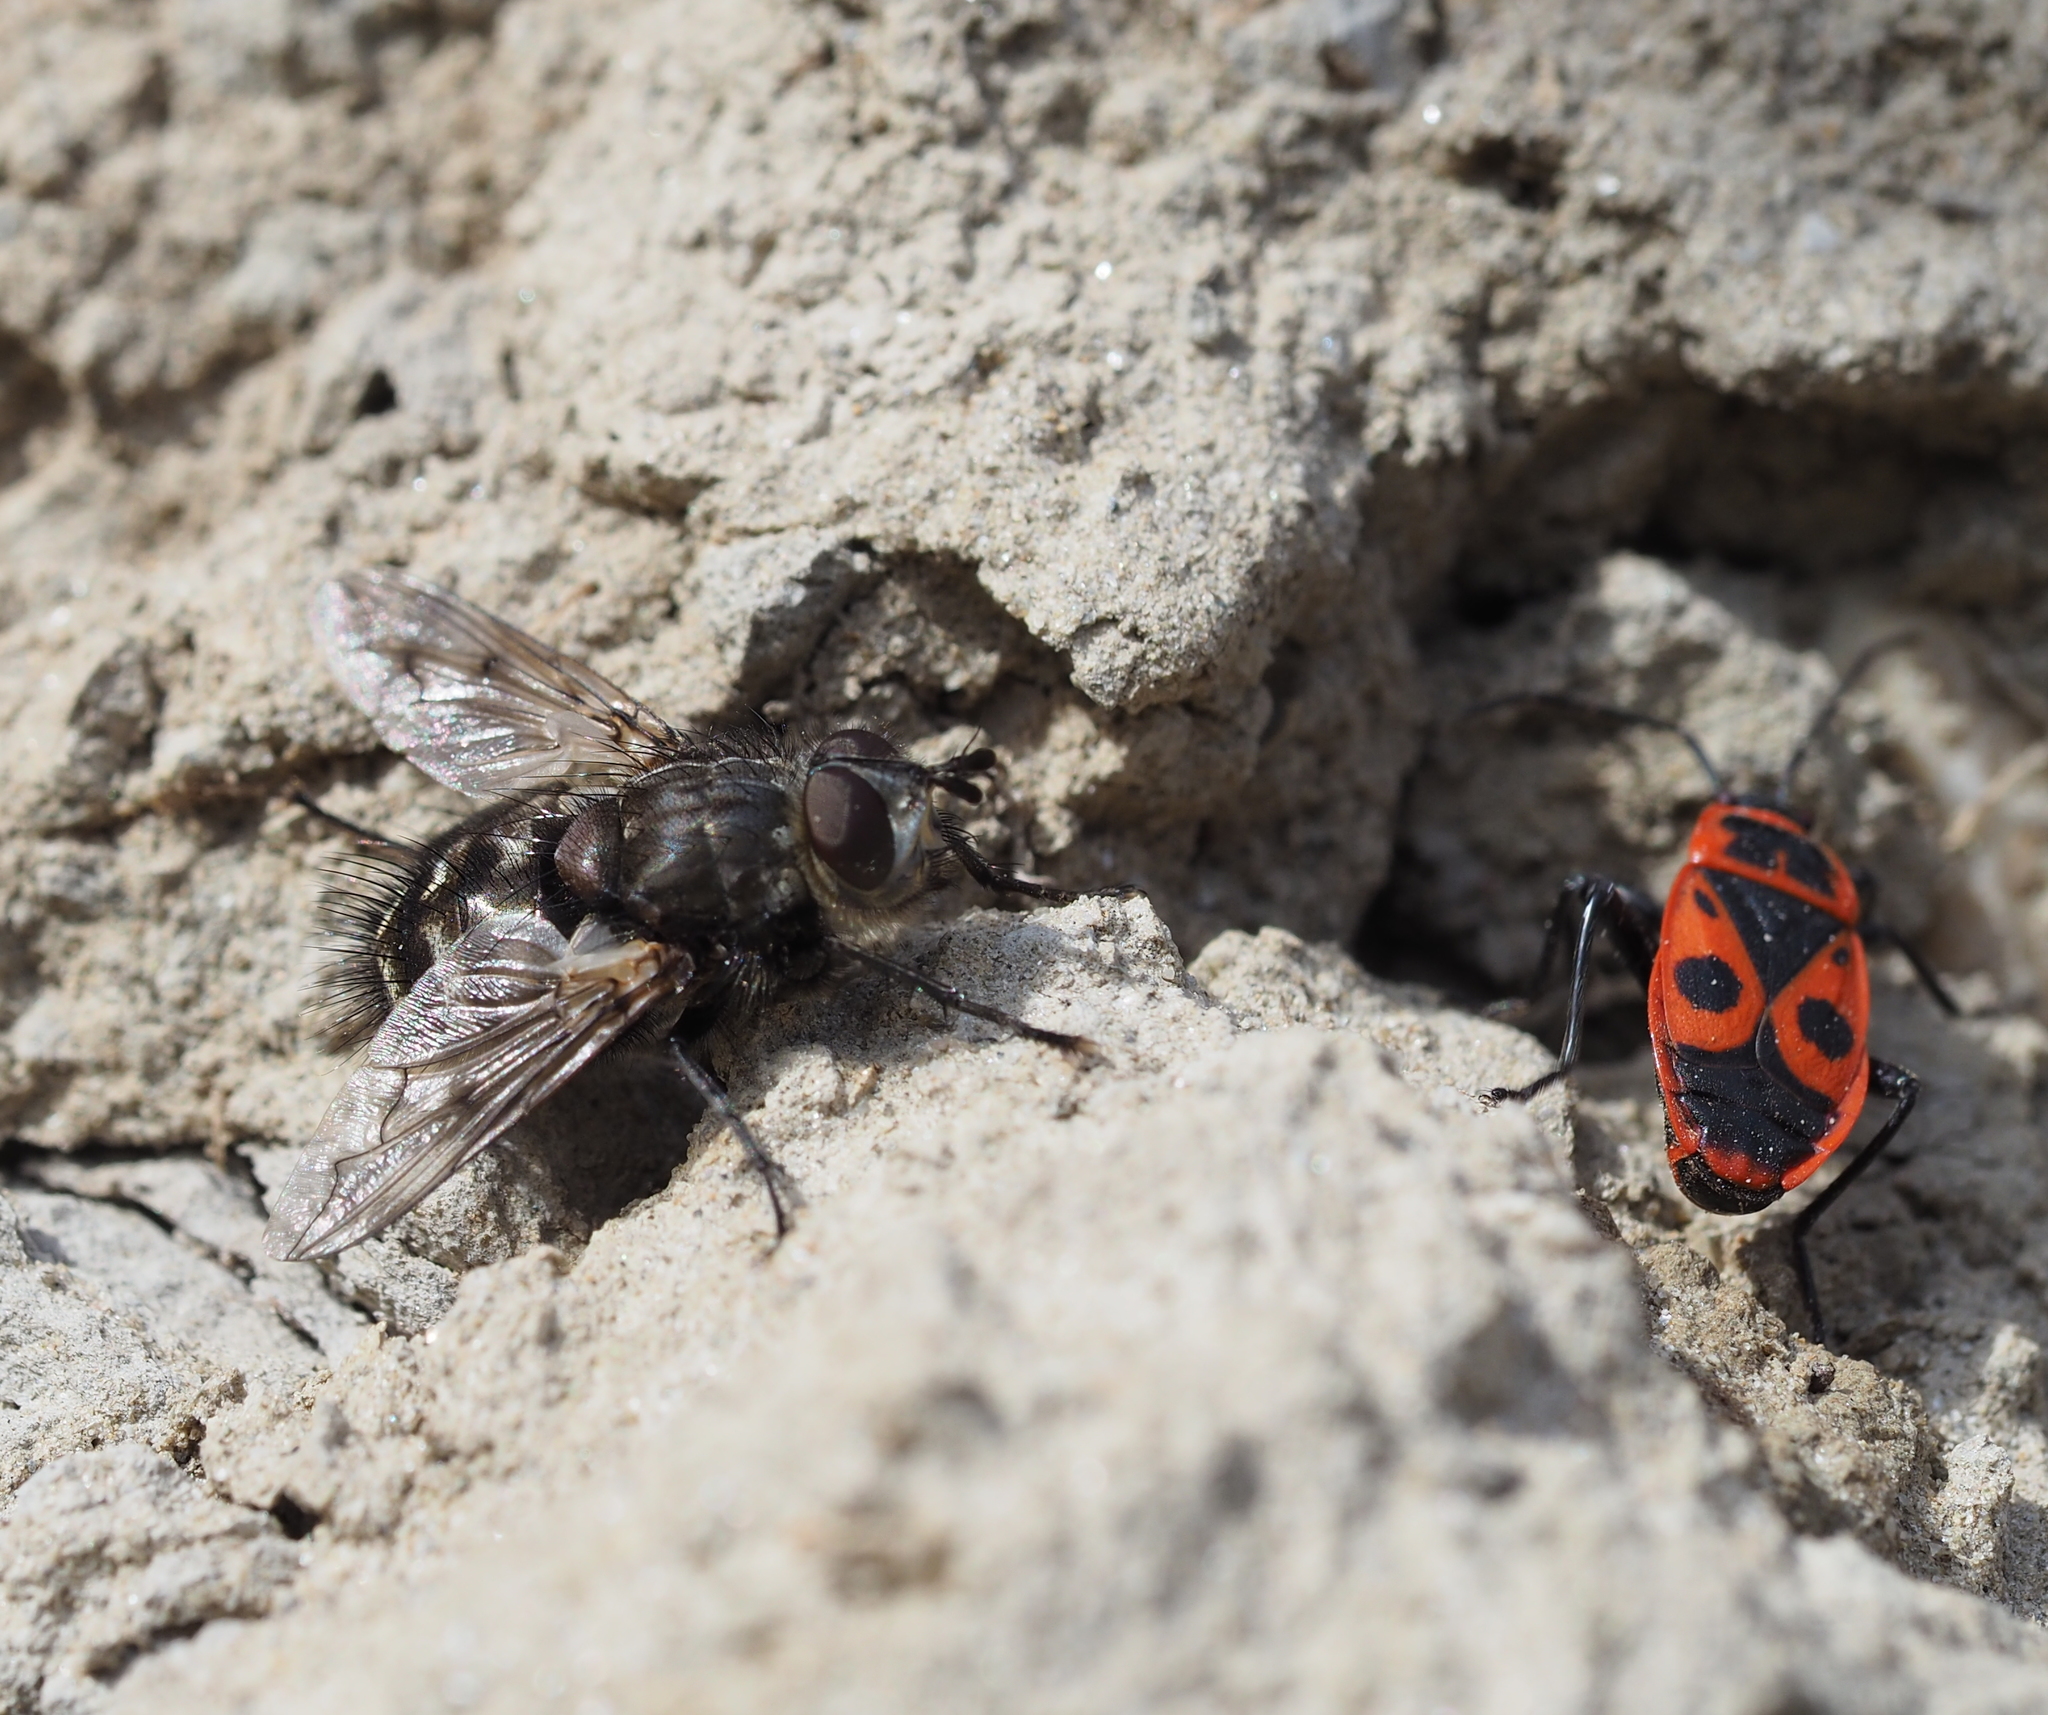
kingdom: Animalia
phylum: Arthropoda
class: Insecta
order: Diptera
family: Tachinidae
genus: Panzeria
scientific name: Panzeria puparum
